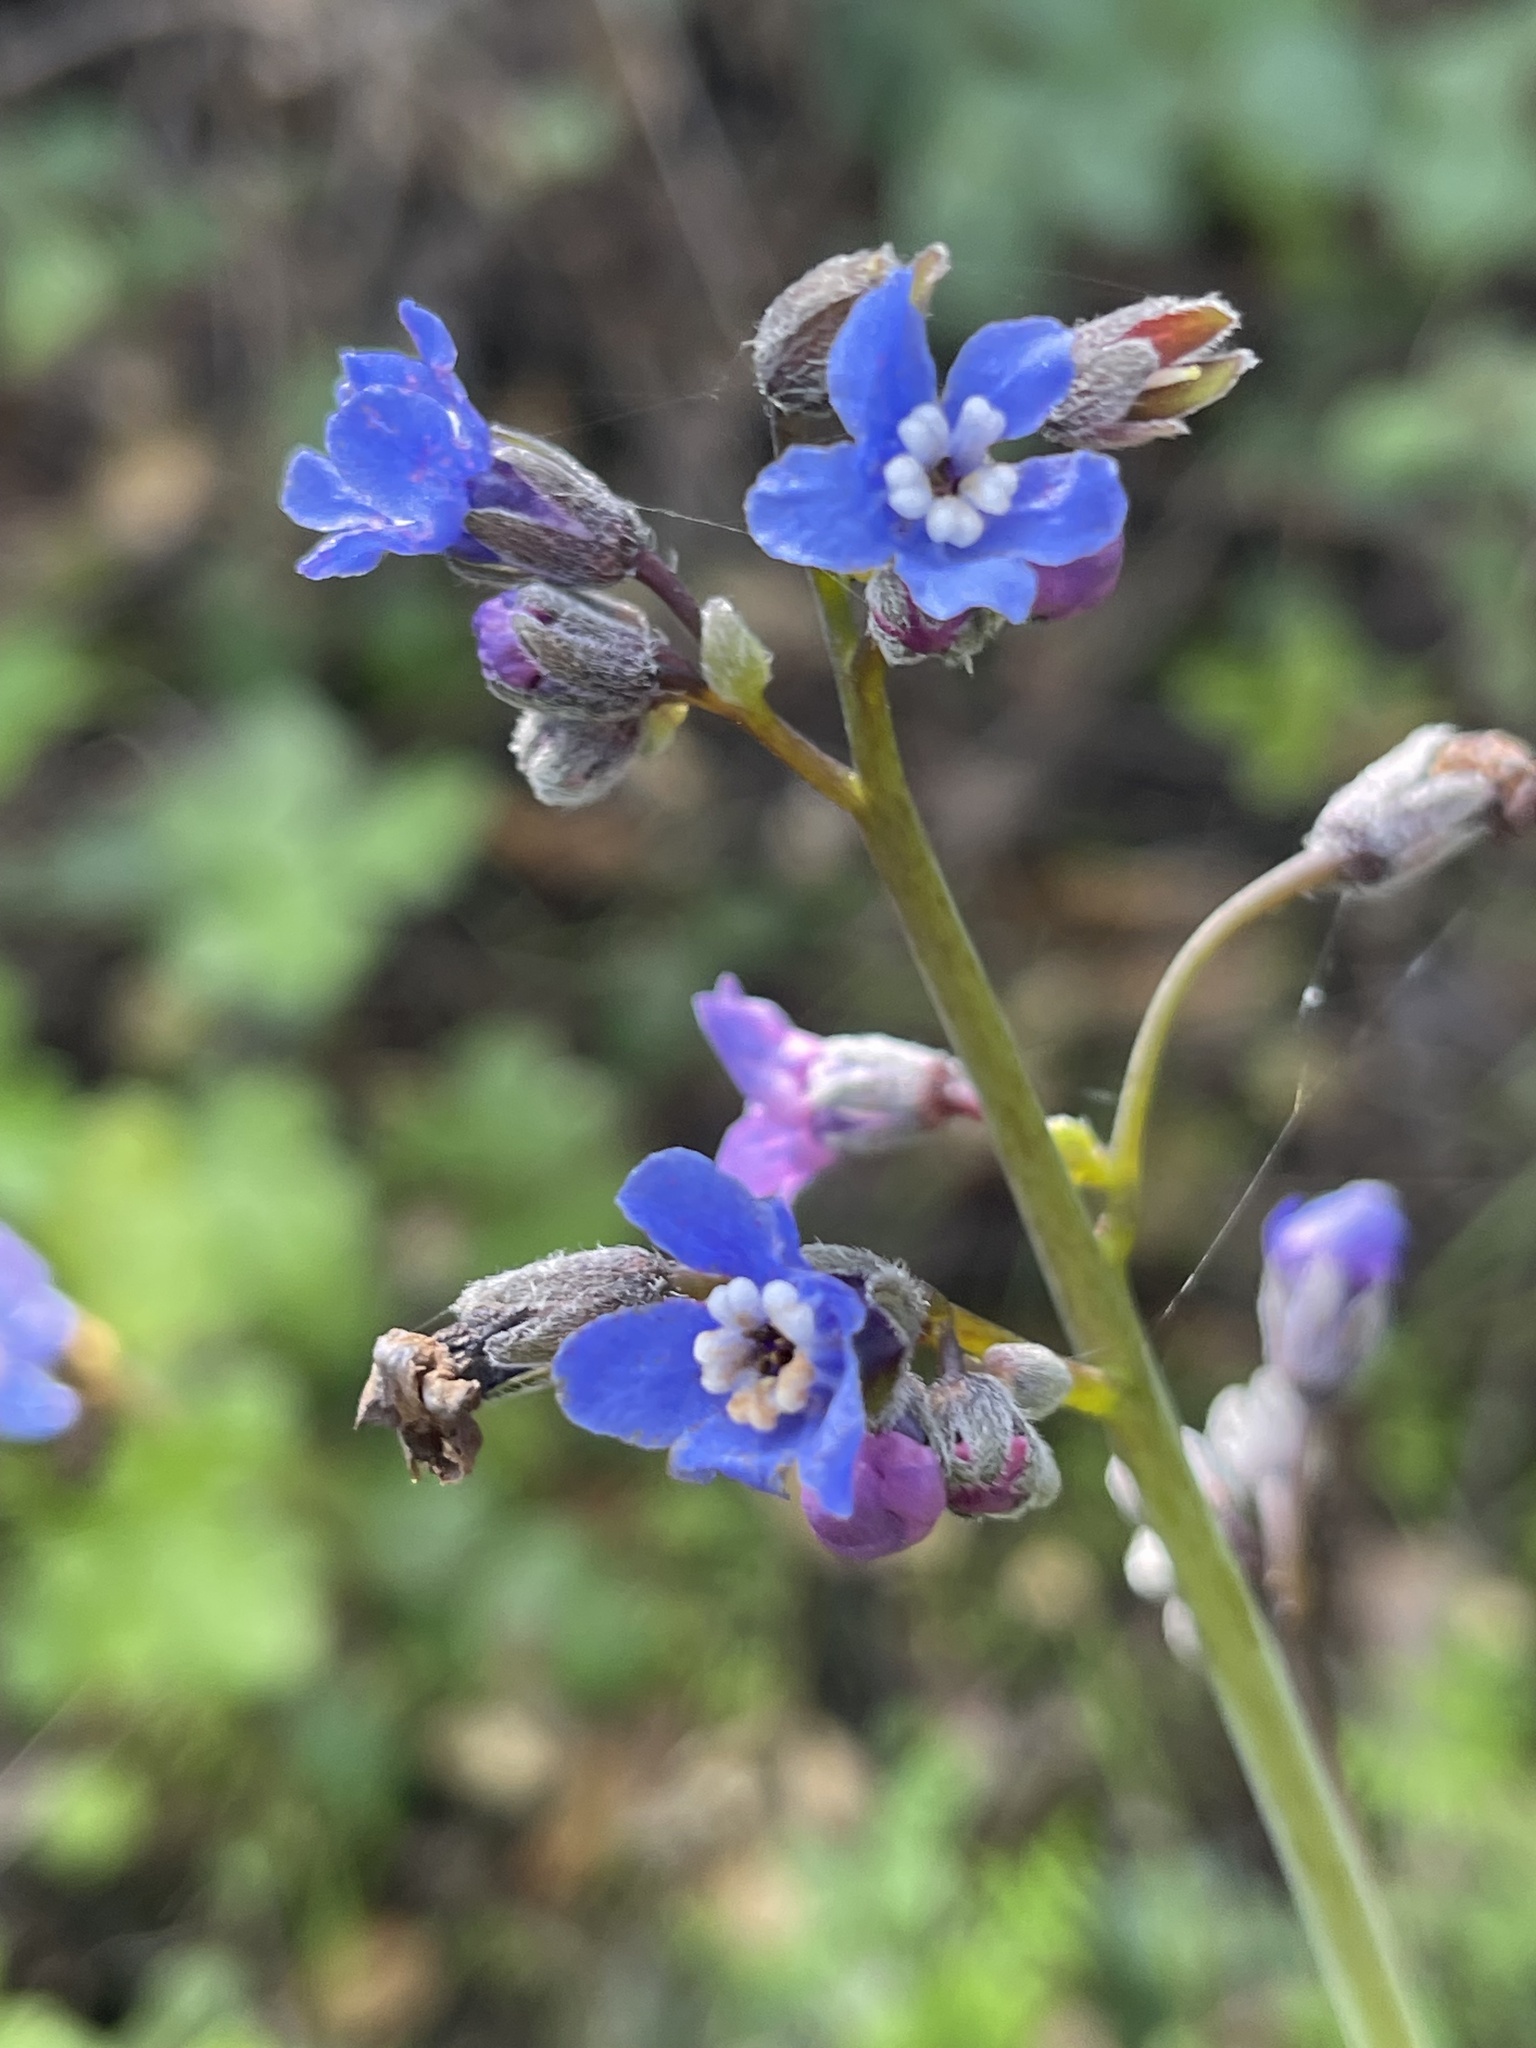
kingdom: Plantae
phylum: Tracheophyta
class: Magnoliopsida
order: Boraginales
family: Boraginaceae
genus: Adelinia
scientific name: Adelinia grande
